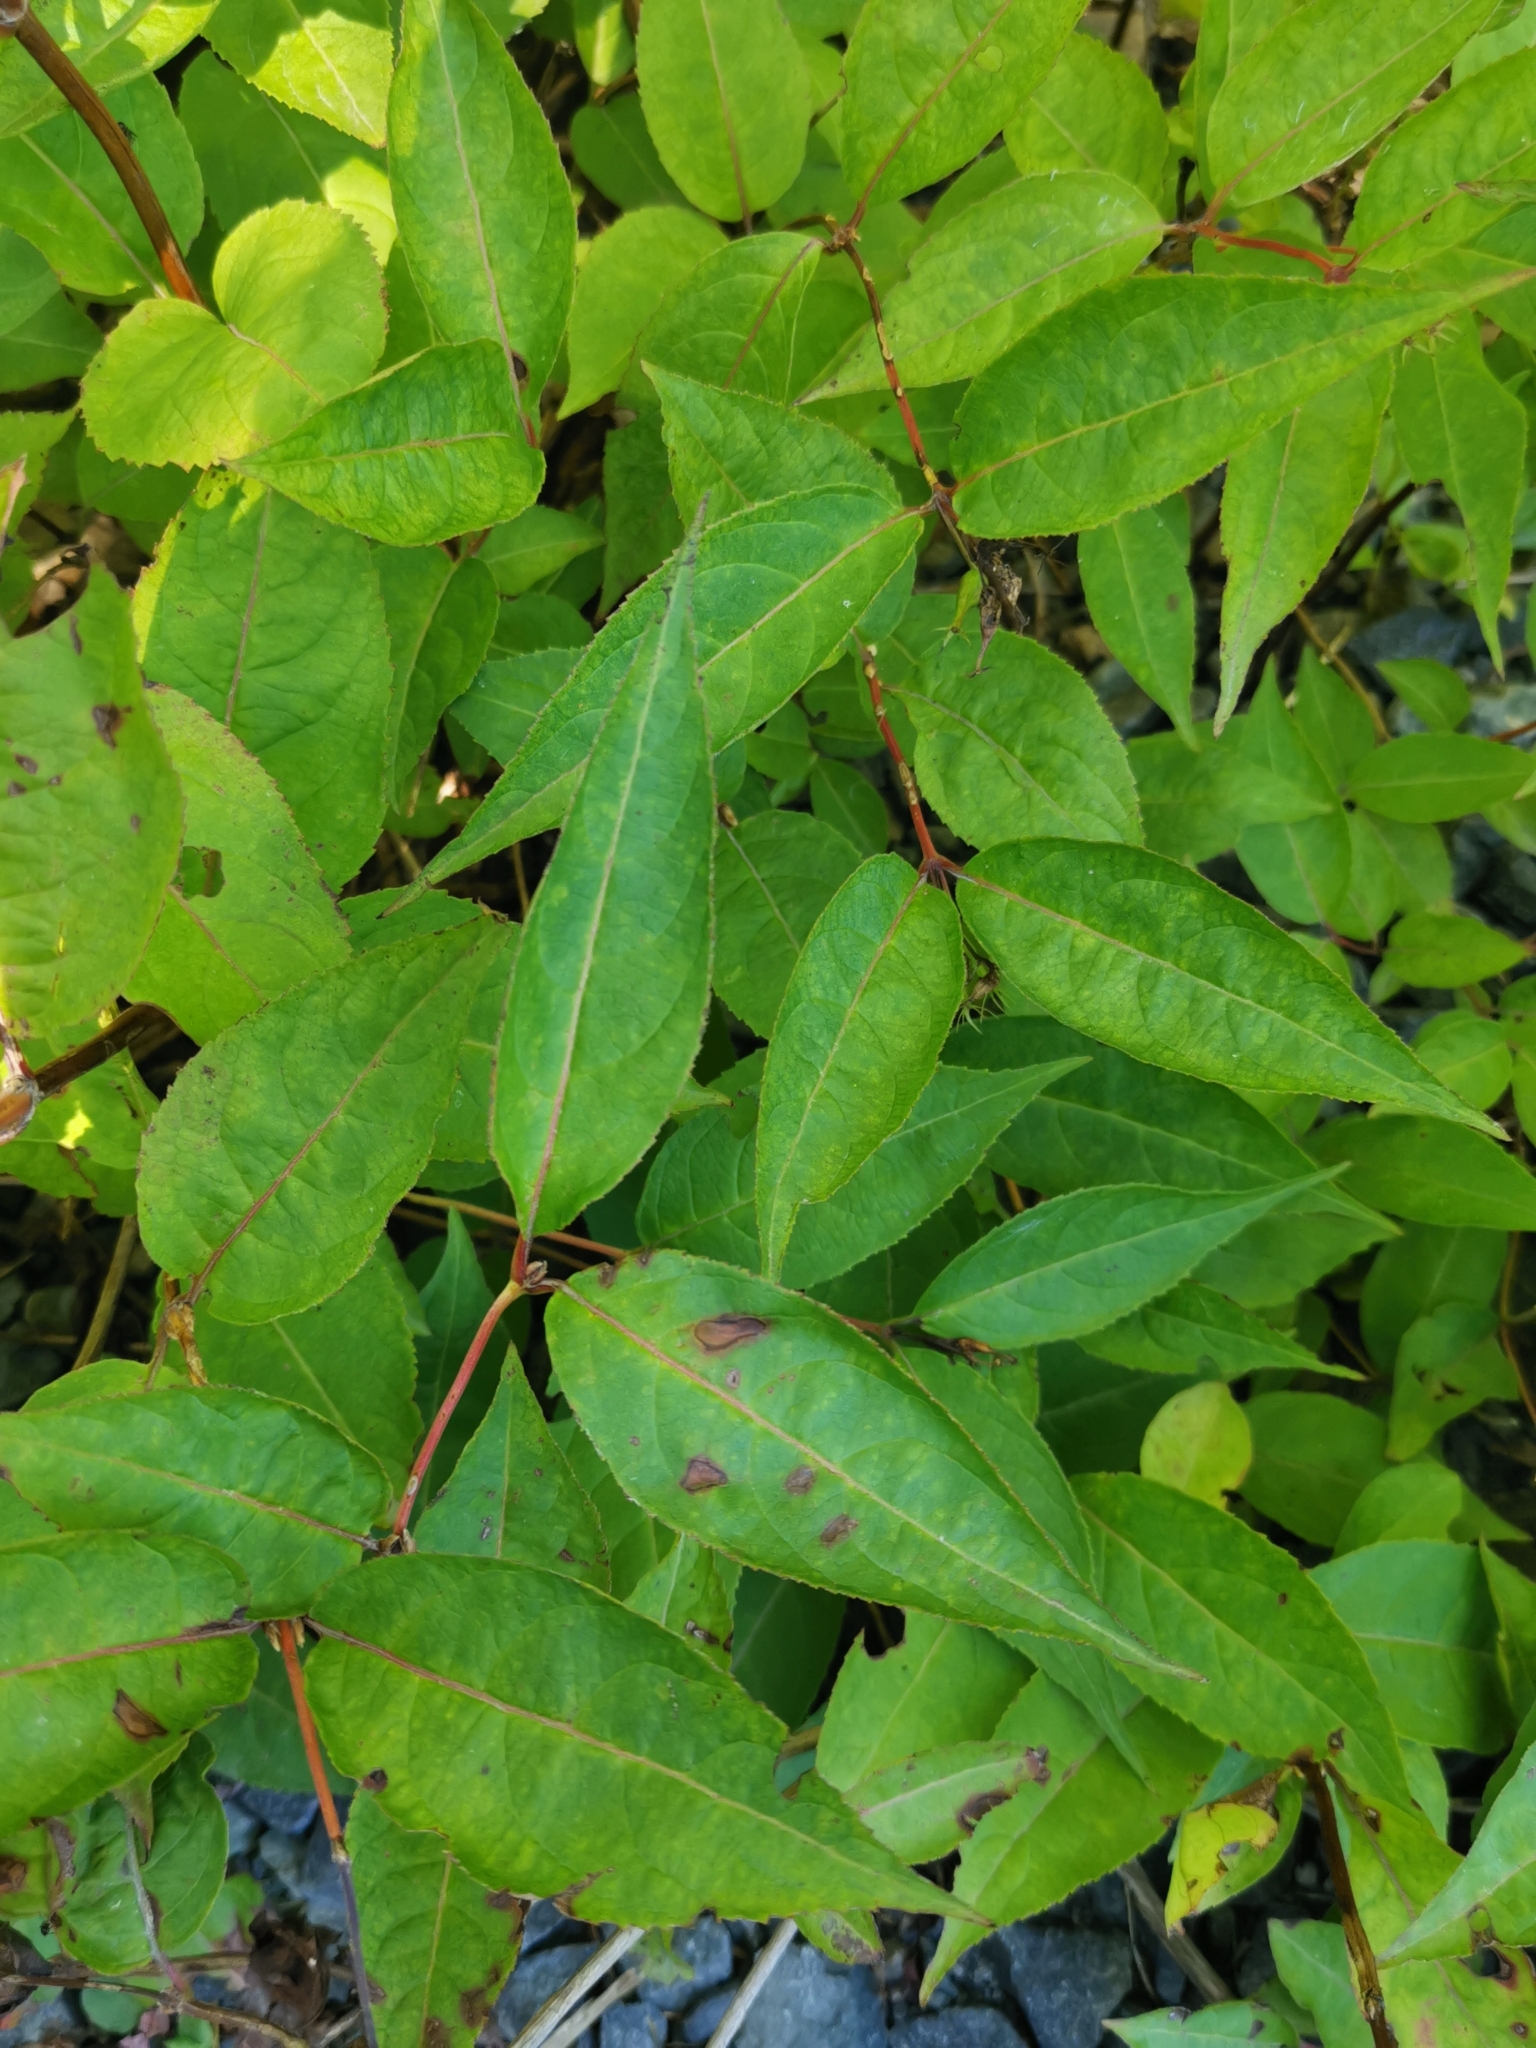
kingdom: Plantae
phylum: Tracheophyta
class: Magnoliopsida
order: Dipsacales
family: Caprifoliaceae
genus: Diervilla
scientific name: Diervilla lonicera
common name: Bush-honeysuckle
